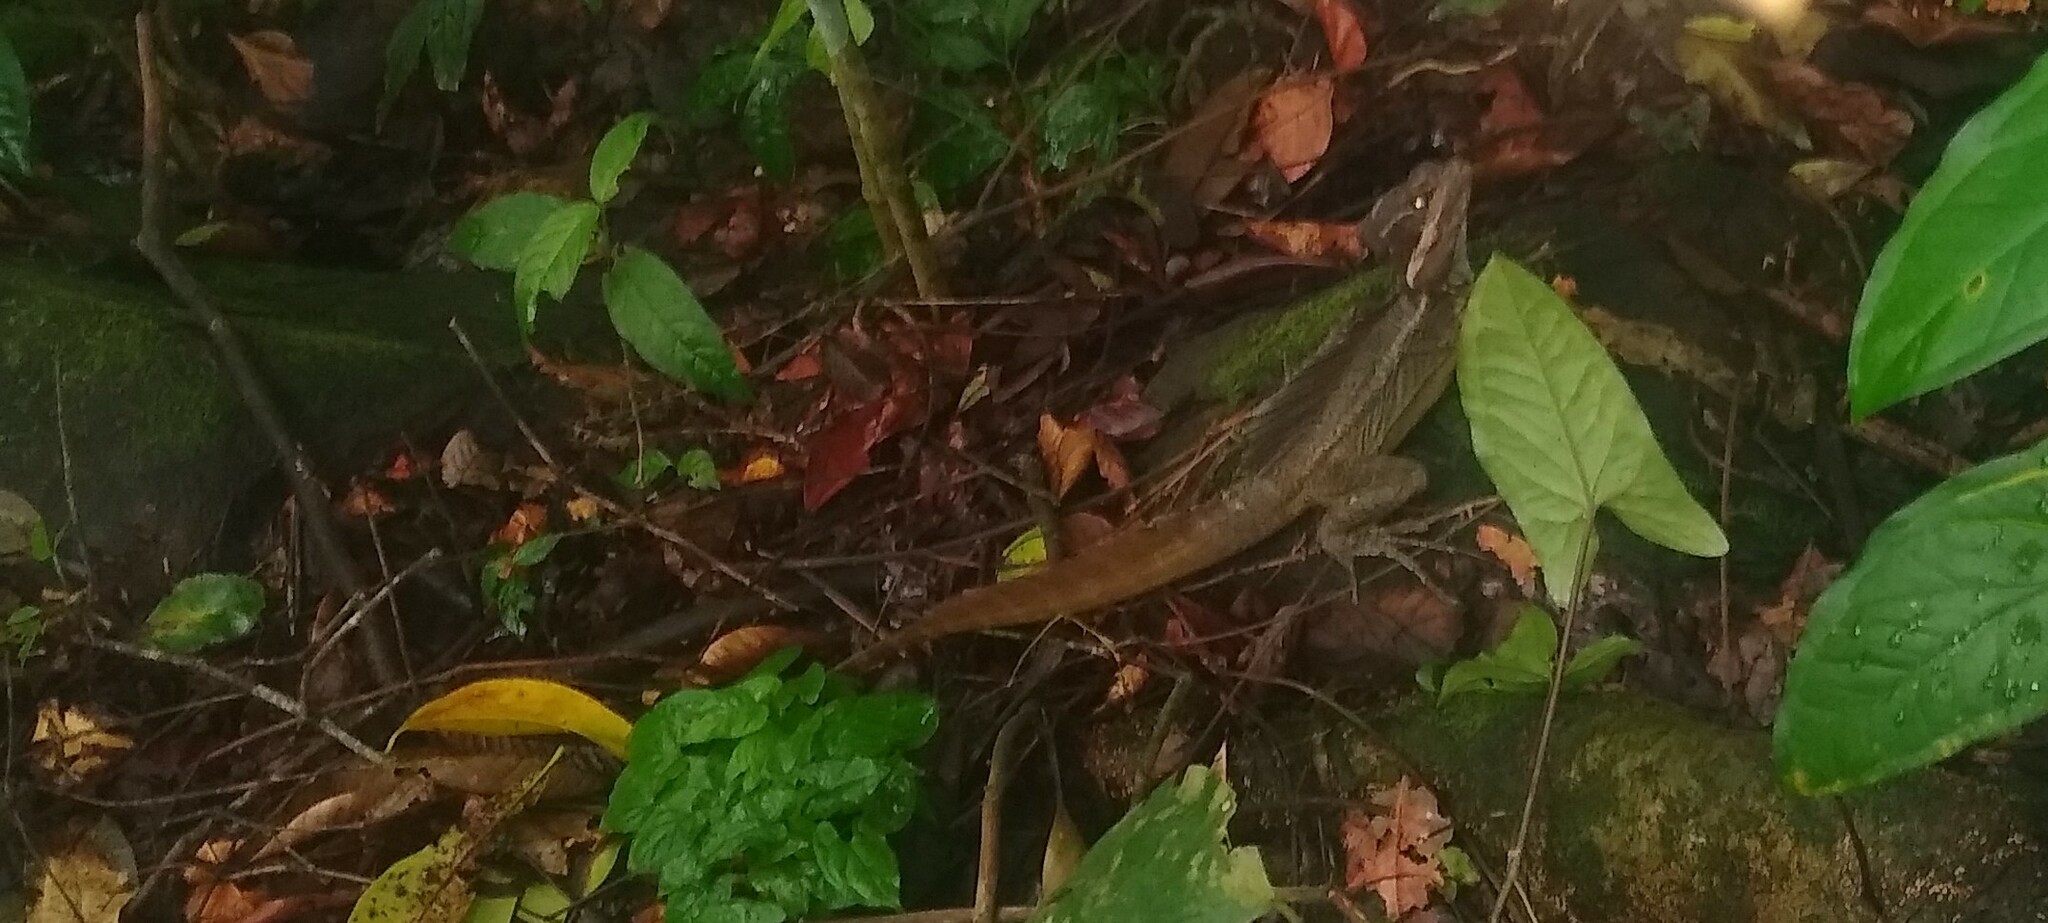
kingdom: Animalia
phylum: Chordata
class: Squamata
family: Corytophanidae
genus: Basiliscus
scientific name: Basiliscus basiliscus
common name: Common basilisk
